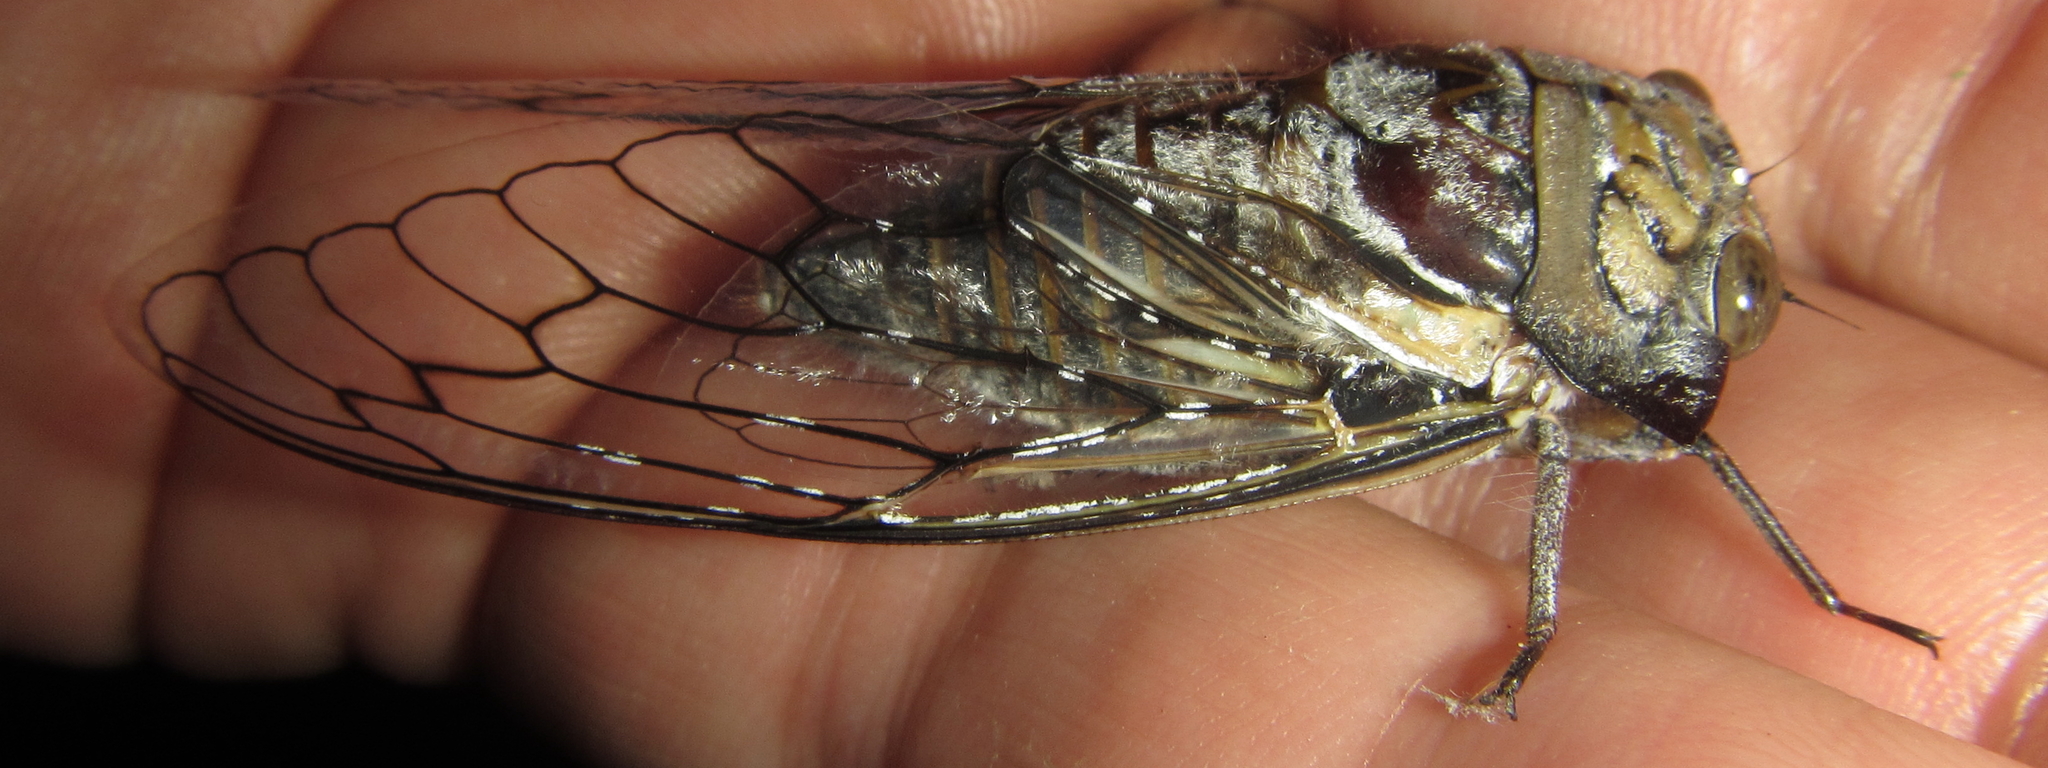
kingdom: Animalia
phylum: Arthropoda
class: Insecta
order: Hemiptera
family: Cicadidae
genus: Oxypleura
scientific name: Oxypleura quadraticollis
